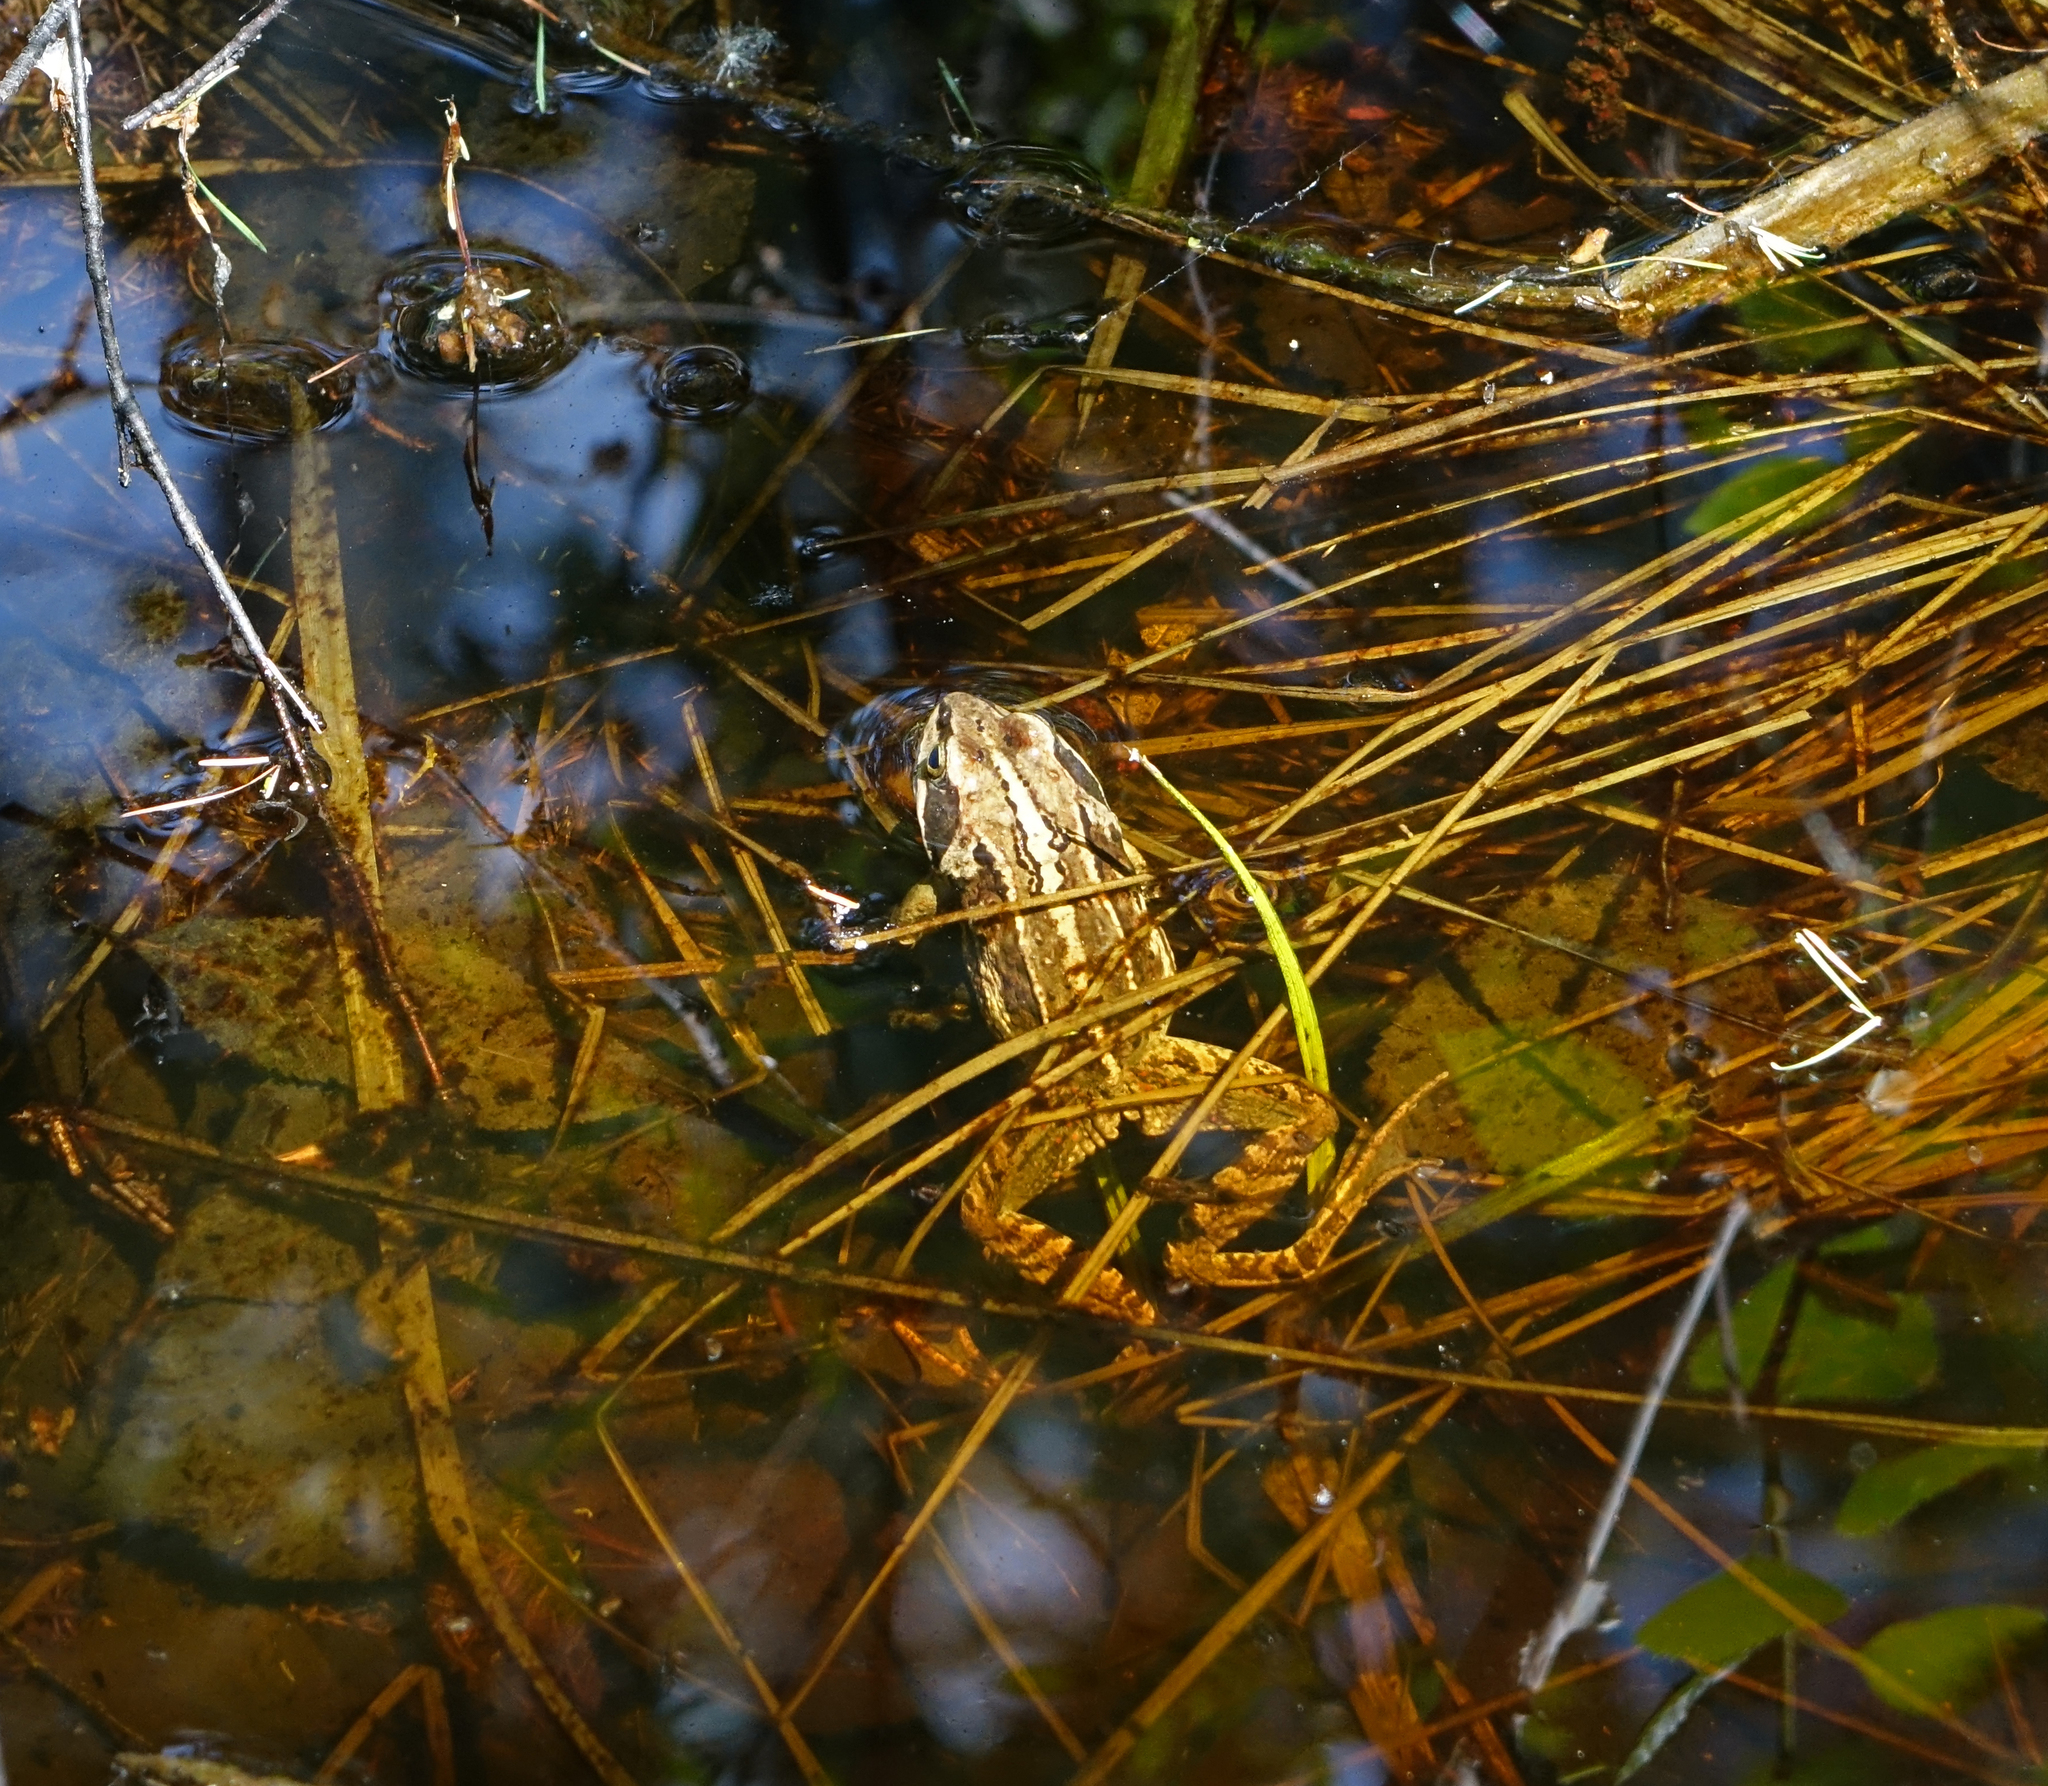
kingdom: Animalia
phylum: Chordata
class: Amphibia
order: Anura
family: Ranidae
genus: Rana
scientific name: Rana amurensis
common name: Amur brown frog
